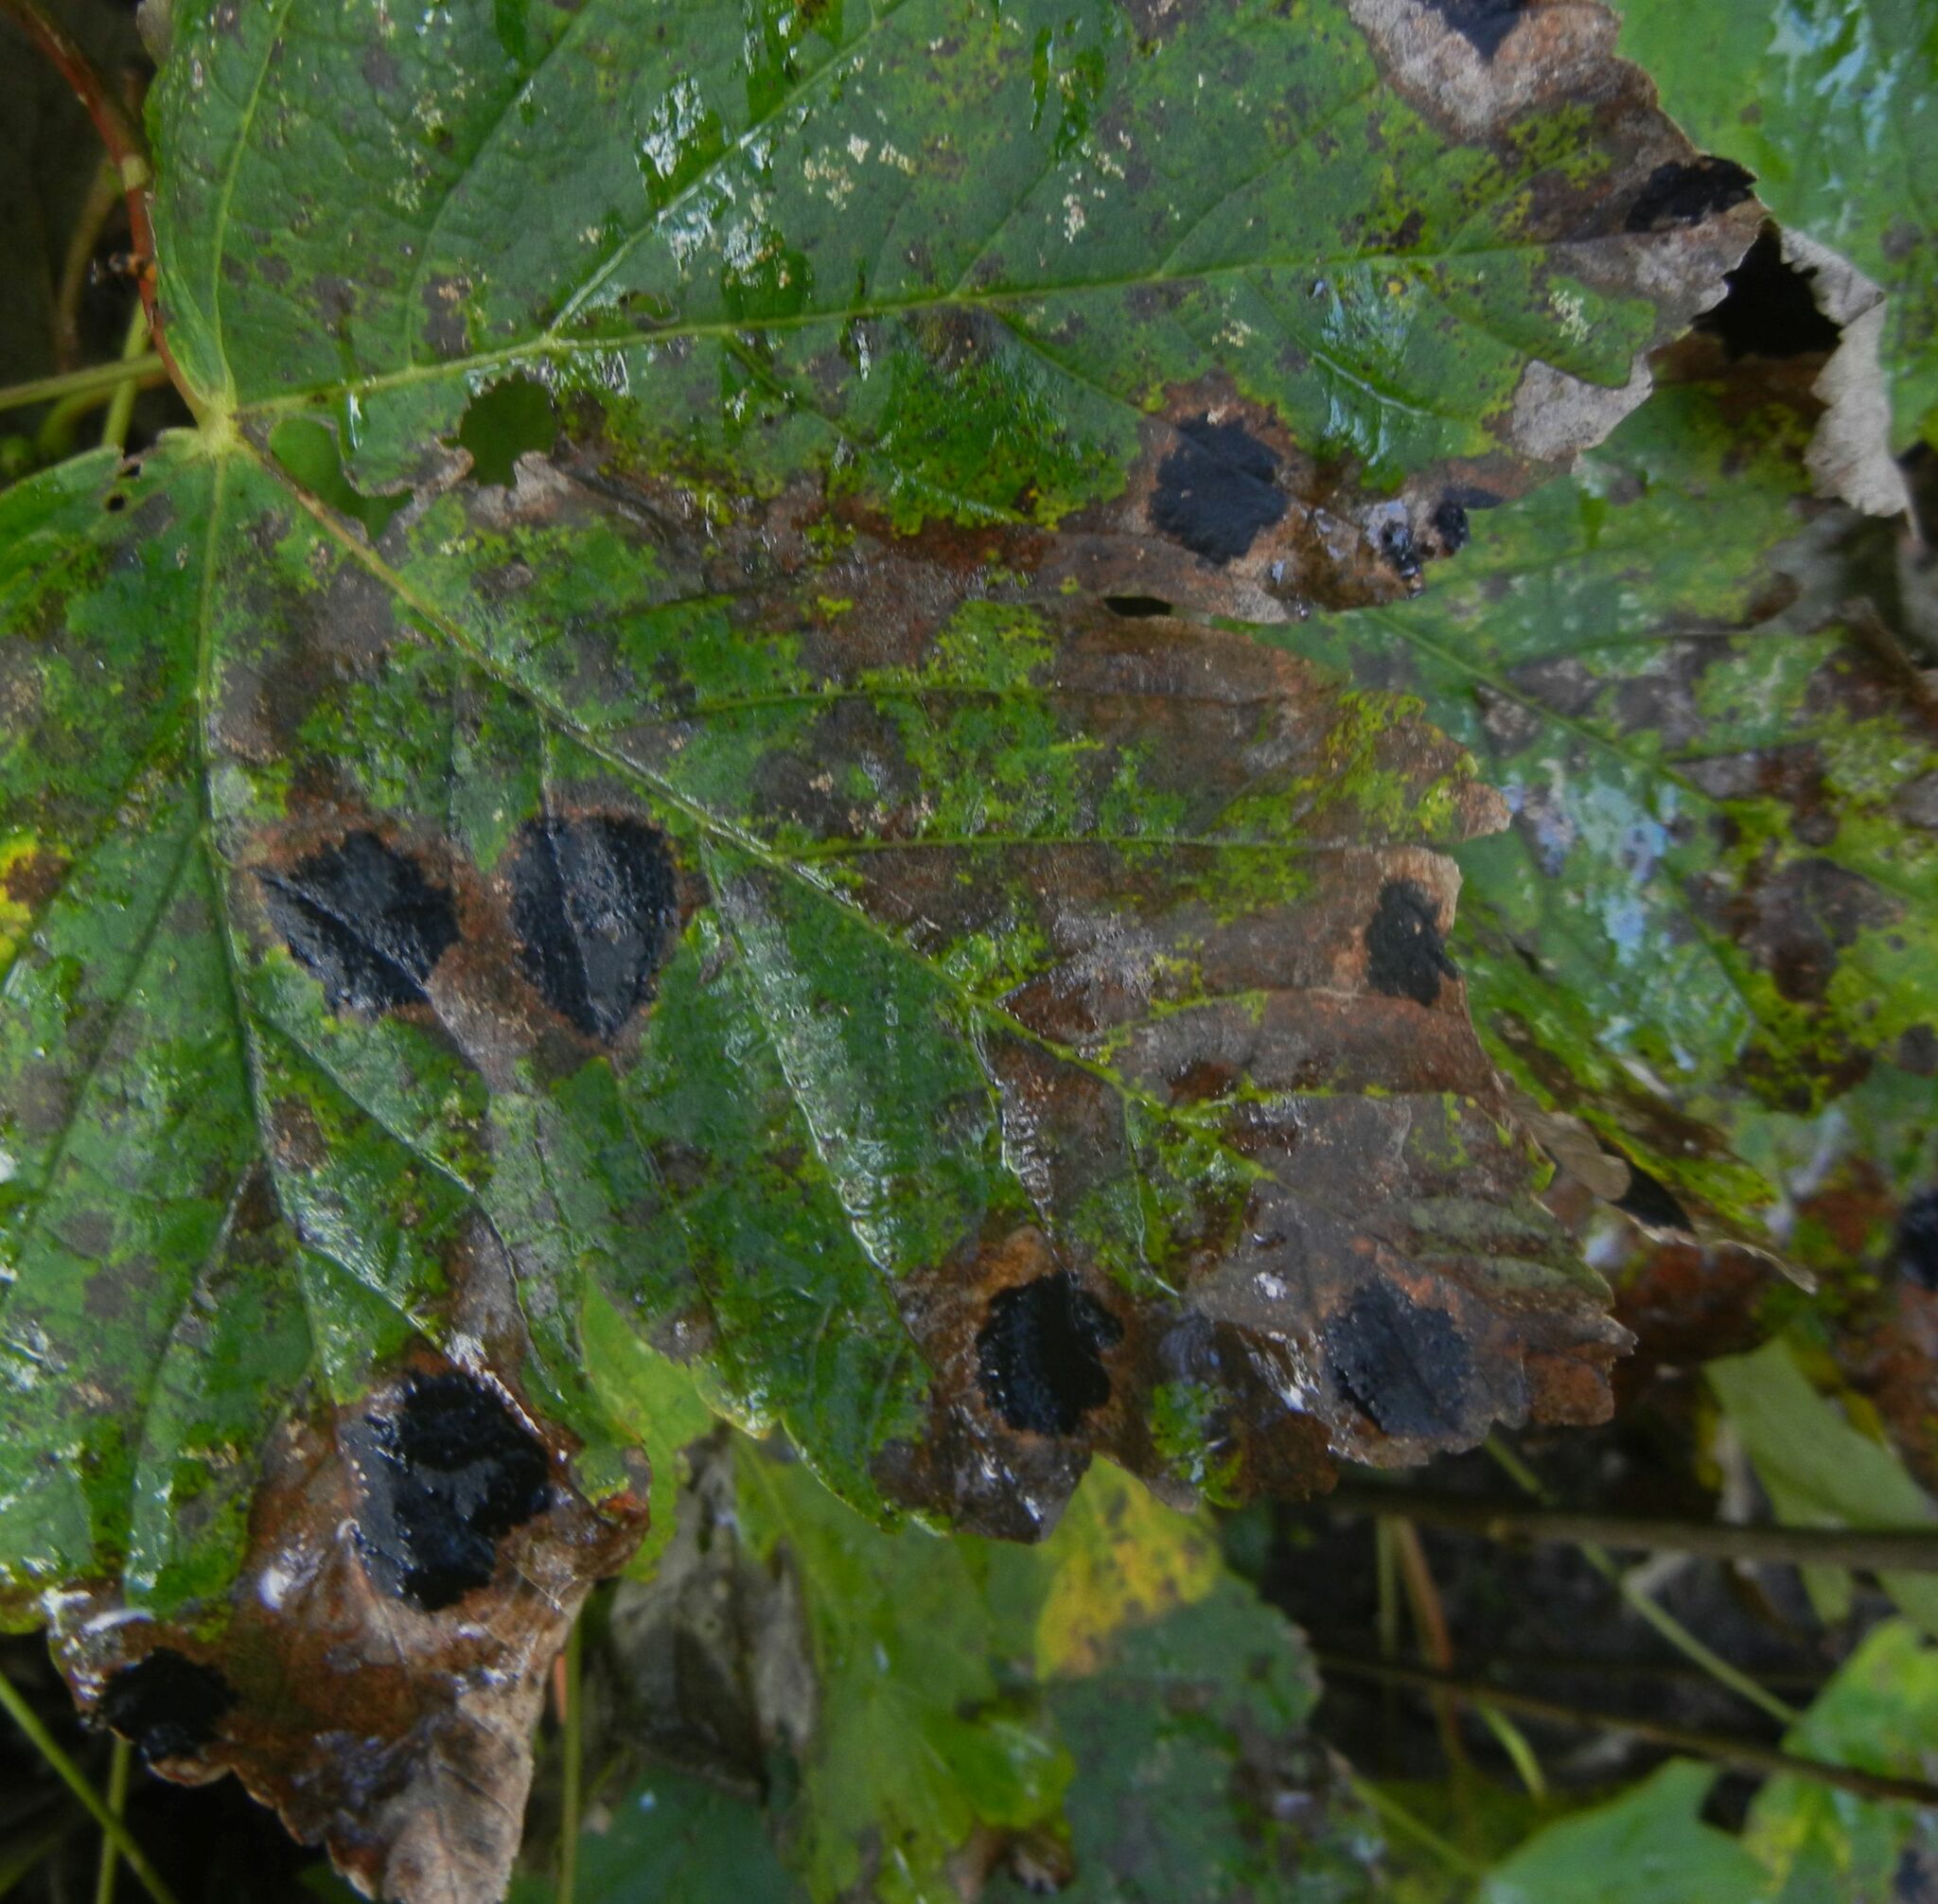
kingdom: Fungi
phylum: Ascomycota
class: Leotiomycetes
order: Rhytismatales
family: Rhytismataceae
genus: Rhytisma
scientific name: Rhytisma acerinum
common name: European tar spot
